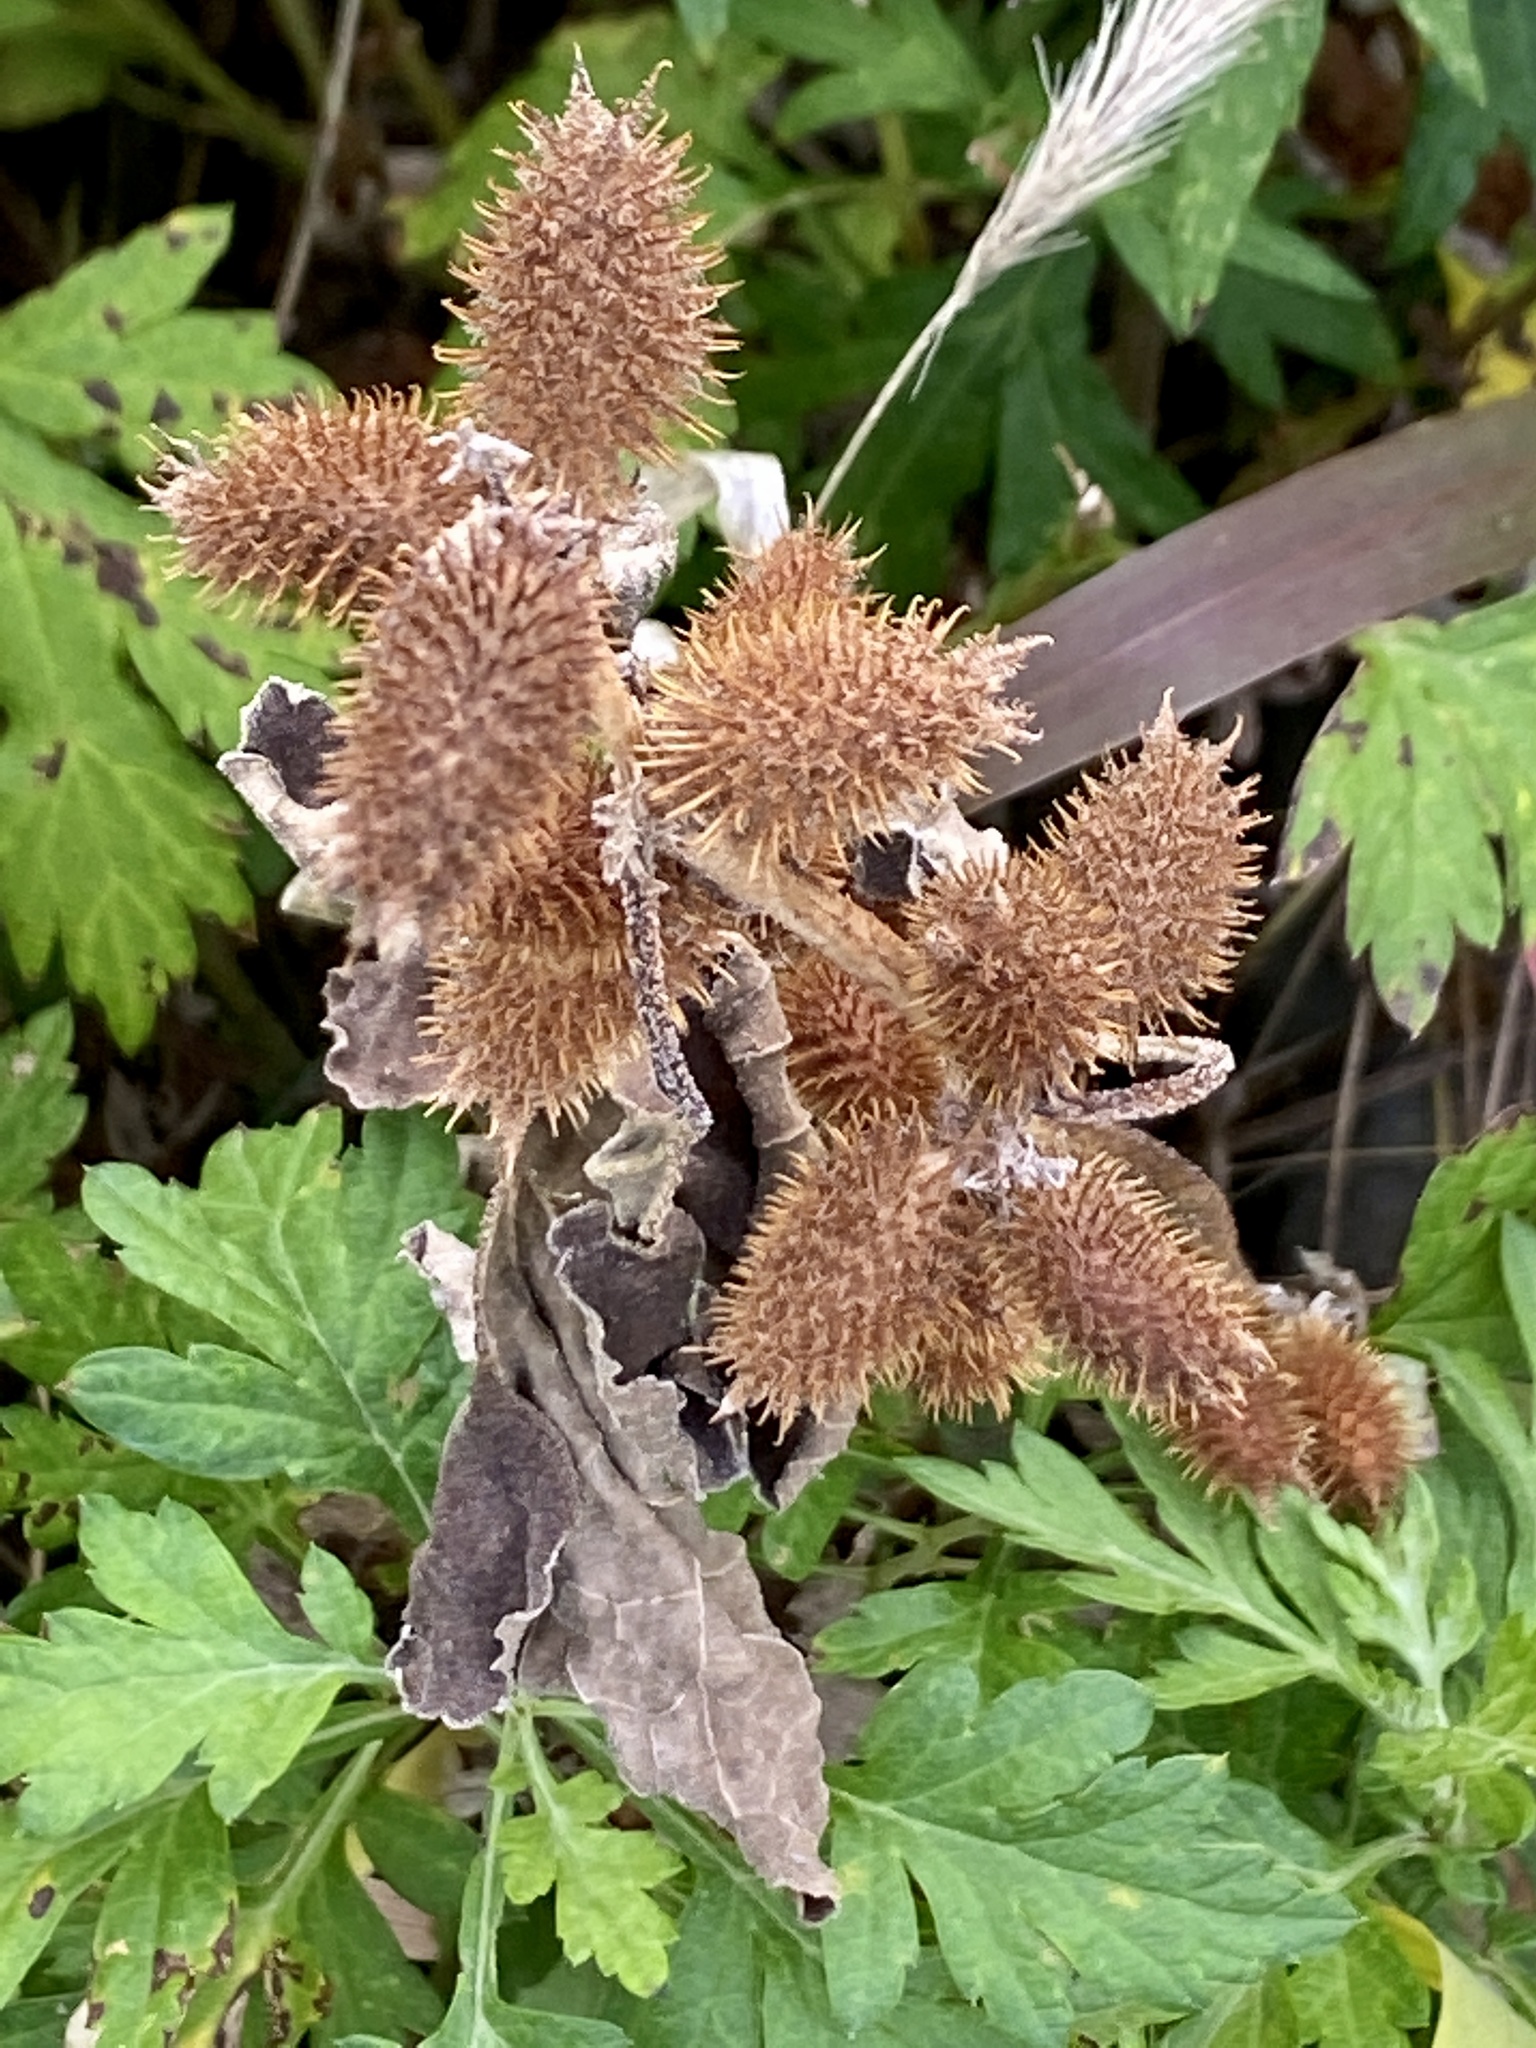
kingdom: Plantae
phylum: Tracheophyta
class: Magnoliopsida
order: Asterales
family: Asteraceae
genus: Xanthium
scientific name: Xanthium strumarium
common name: Rough cocklebur
